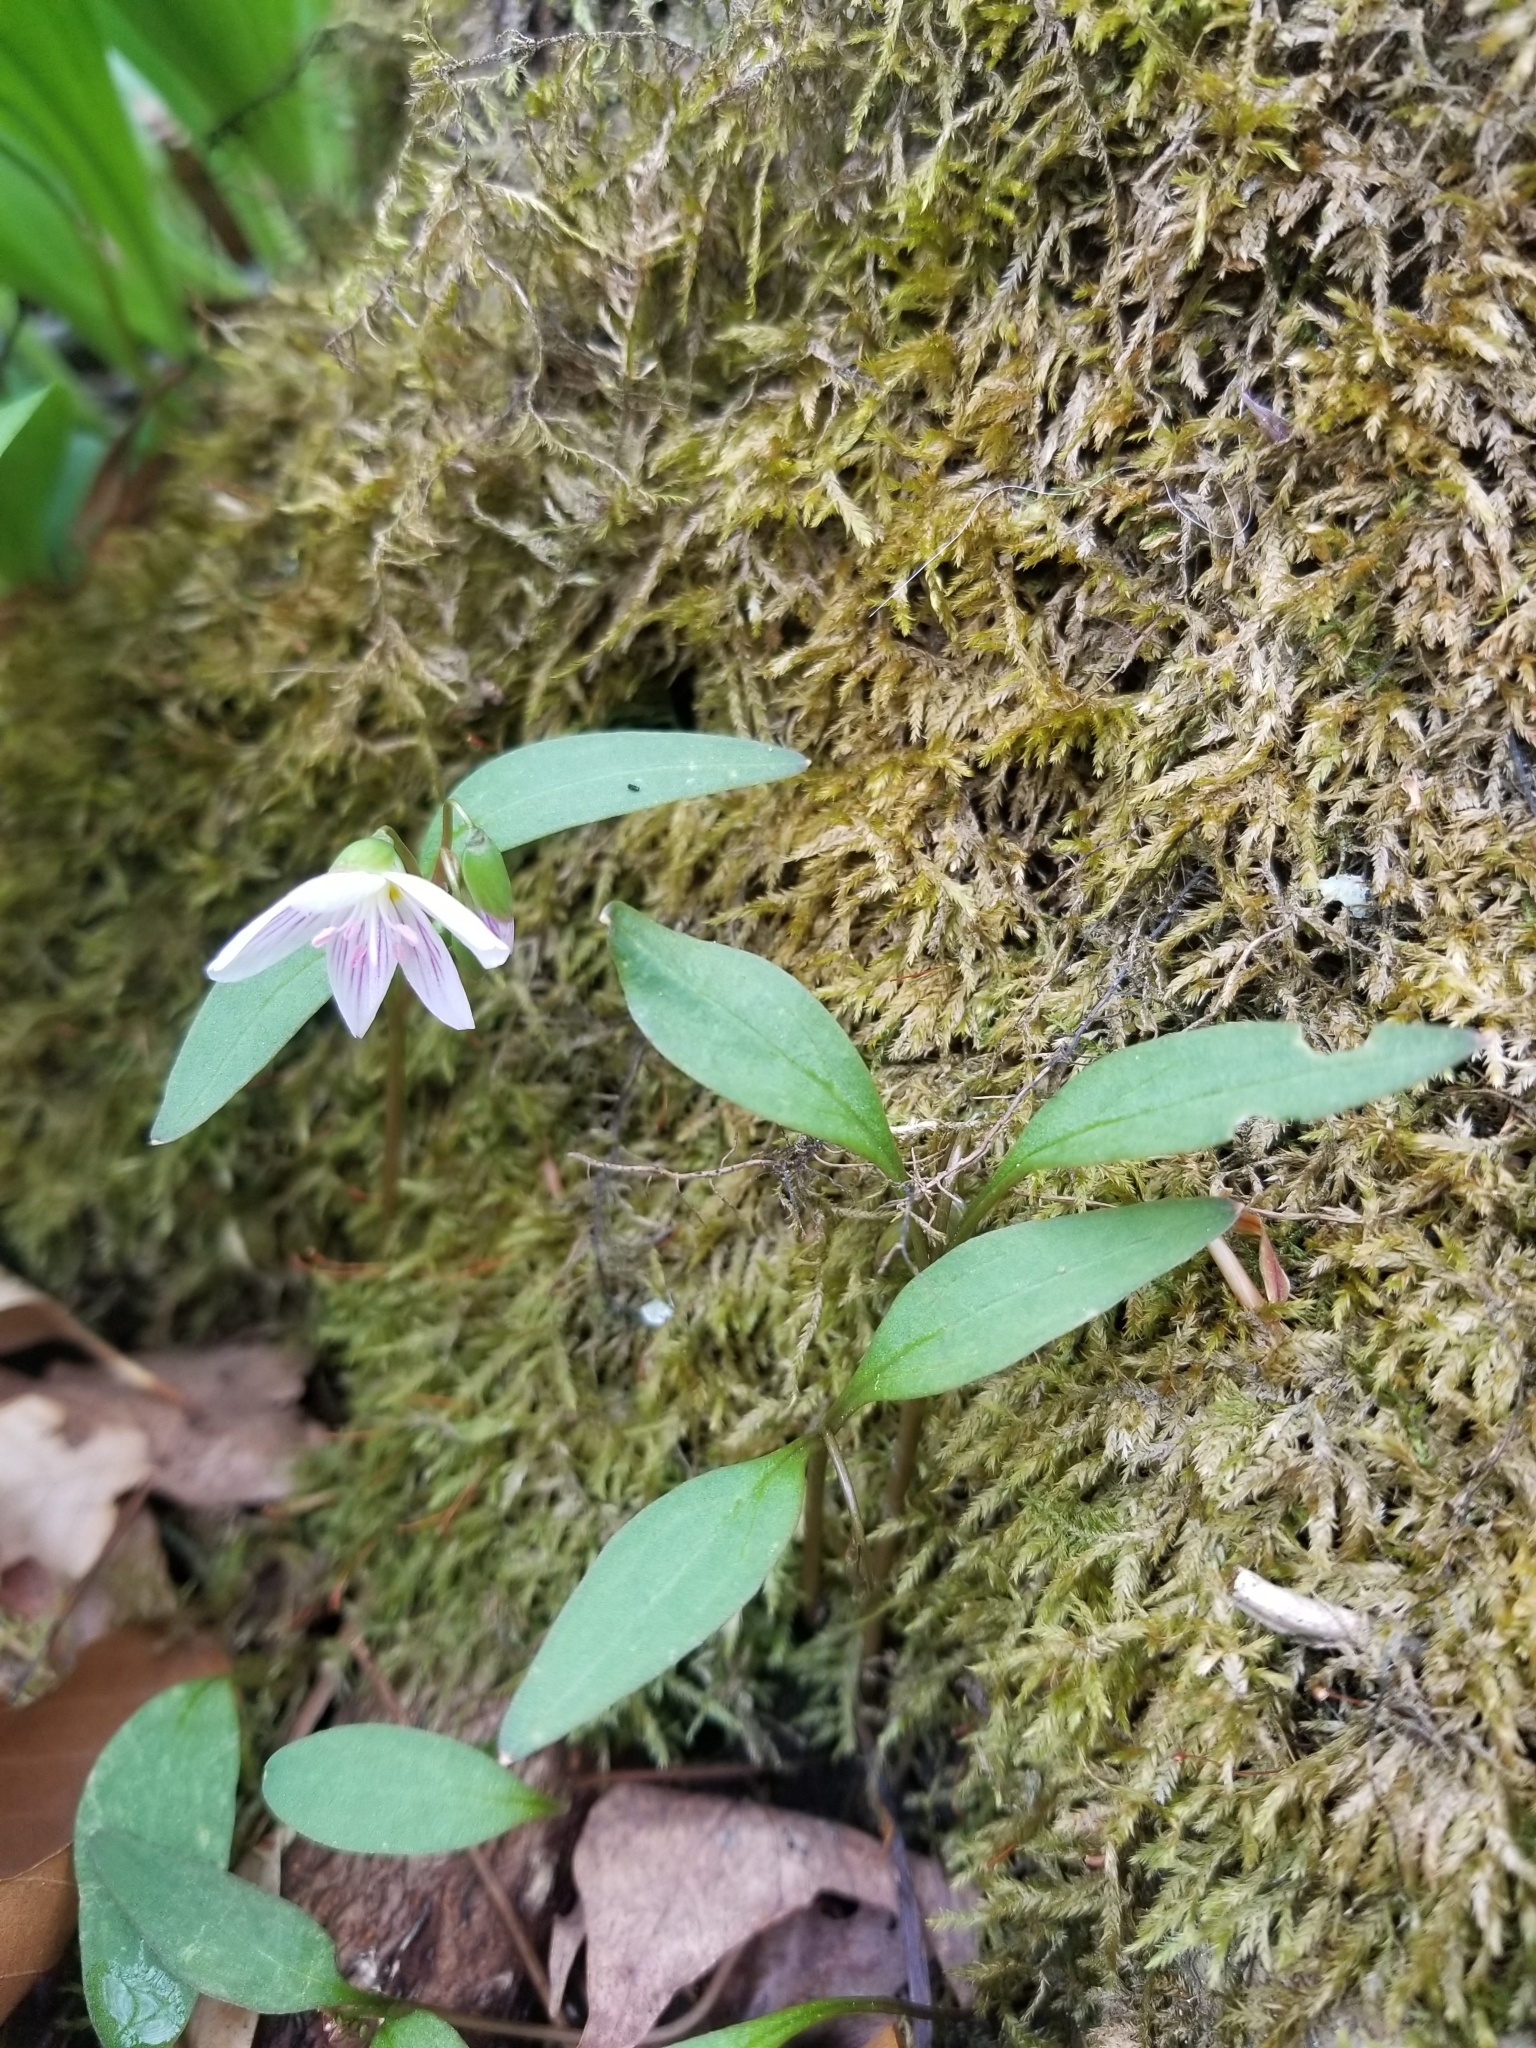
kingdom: Plantae
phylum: Tracheophyta
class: Magnoliopsida
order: Caryophyllales
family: Montiaceae
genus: Claytonia
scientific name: Claytonia caroliniana
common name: Carolina spring beauty
